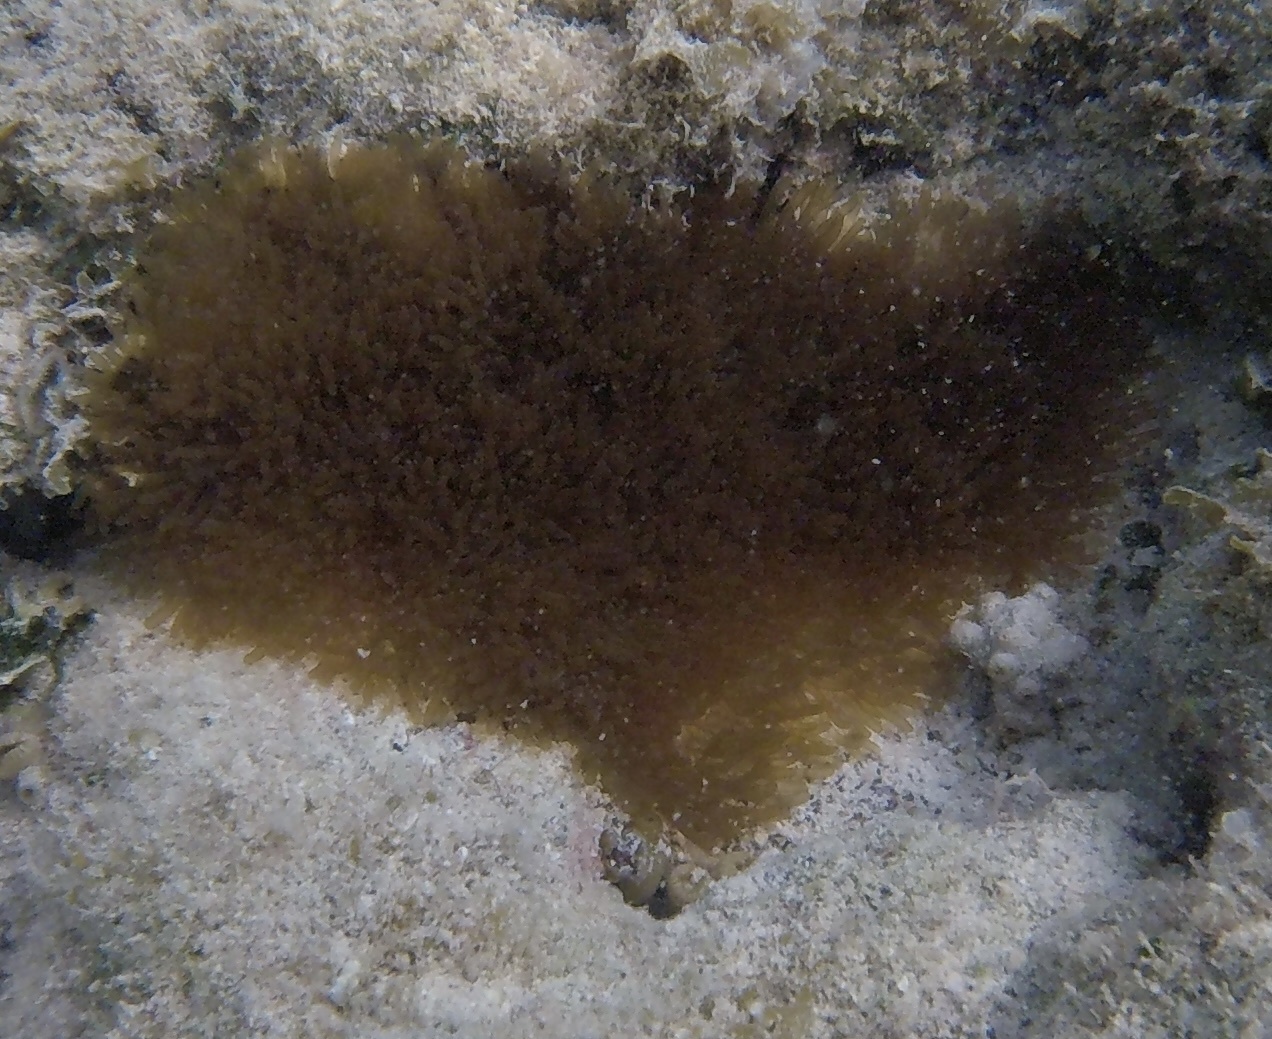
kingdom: Animalia
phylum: Cnidaria
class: Anthozoa
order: Actiniaria
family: Aliciidae
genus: Lebrunia
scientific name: Lebrunia neglecta
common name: Branching anemone
